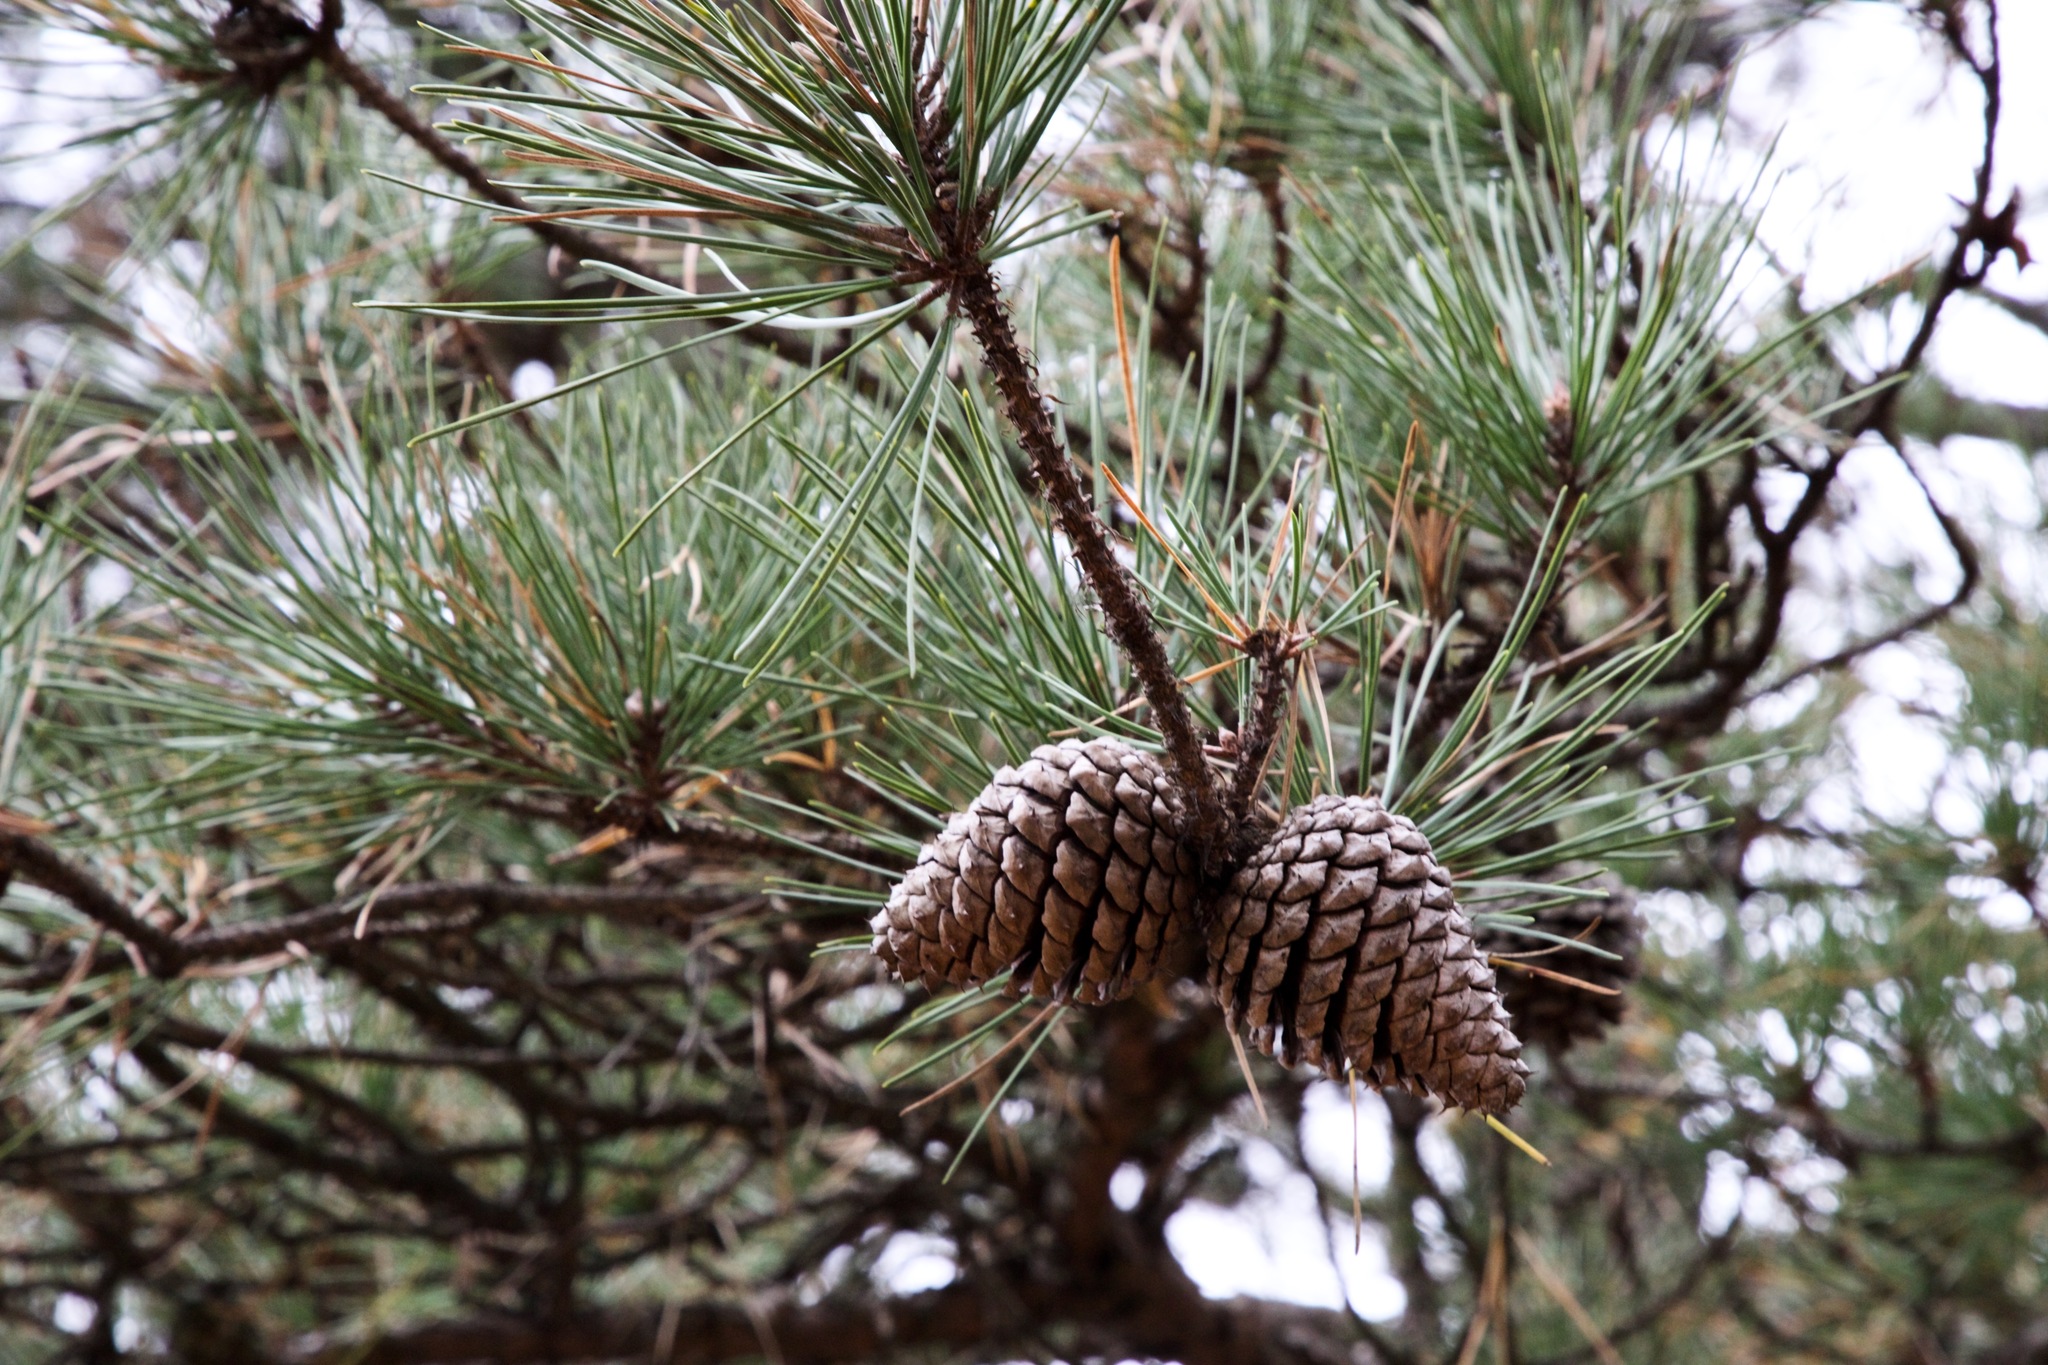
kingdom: Plantae
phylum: Tracheophyta
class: Pinopsida
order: Pinales
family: Pinaceae
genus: Pinus
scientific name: Pinus rigida
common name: Pitch pine
